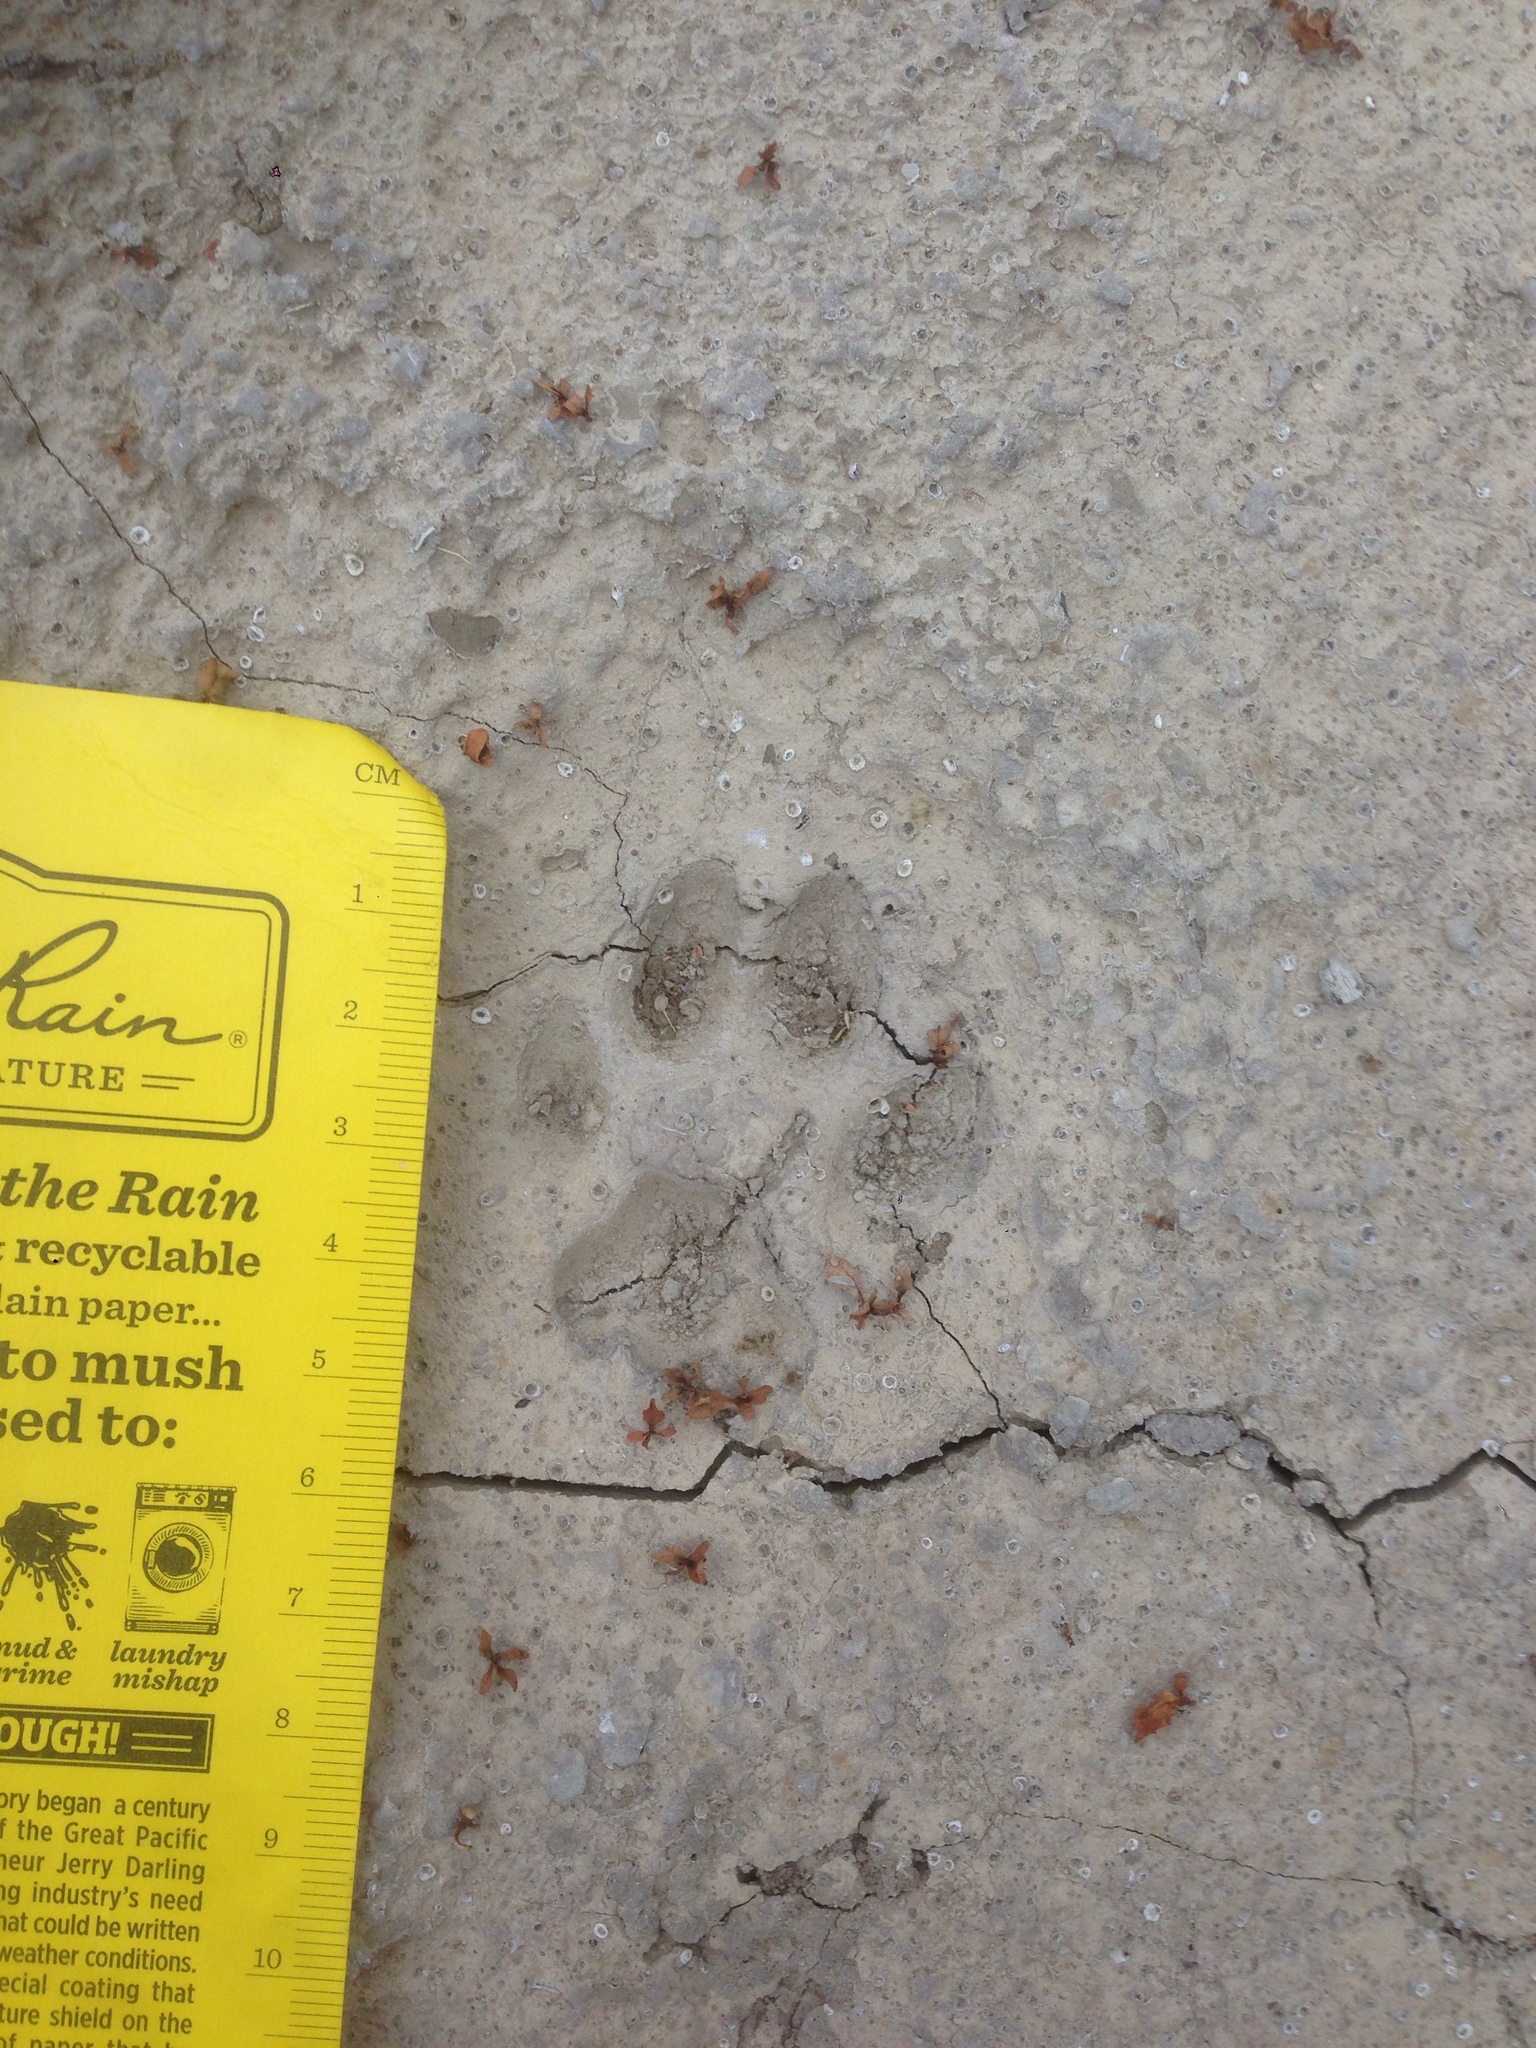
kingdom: Animalia
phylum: Chordata
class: Mammalia
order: Carnivora
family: Felidae
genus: Felis
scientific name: Felis catus
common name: Domestic cat
